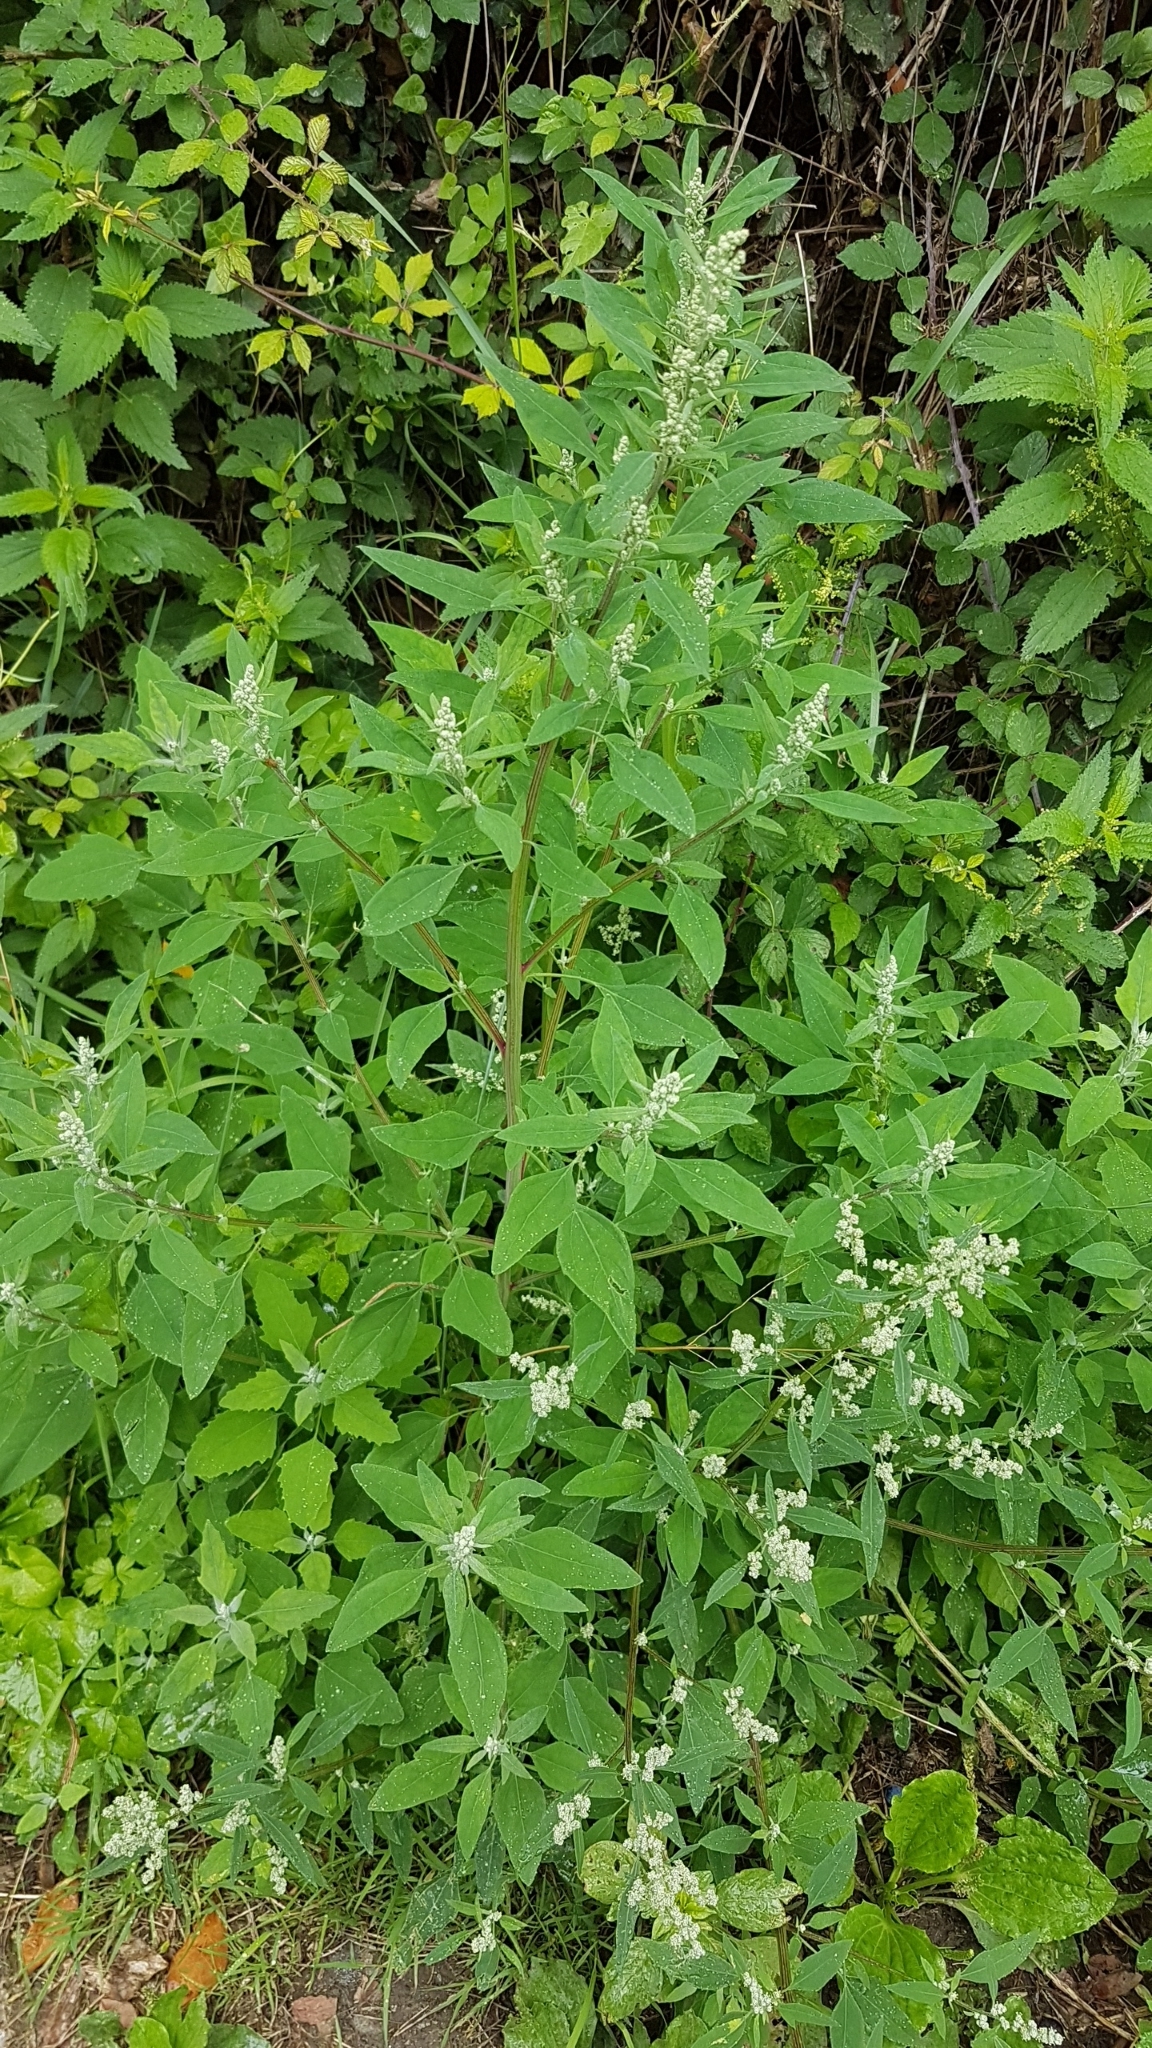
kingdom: Plantae
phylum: Tracheophyta
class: Magnoliopsida
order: Caryophyllales
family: Amaranthaceae
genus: Chenopodium
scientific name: Chenopodium album
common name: Fat-hen
